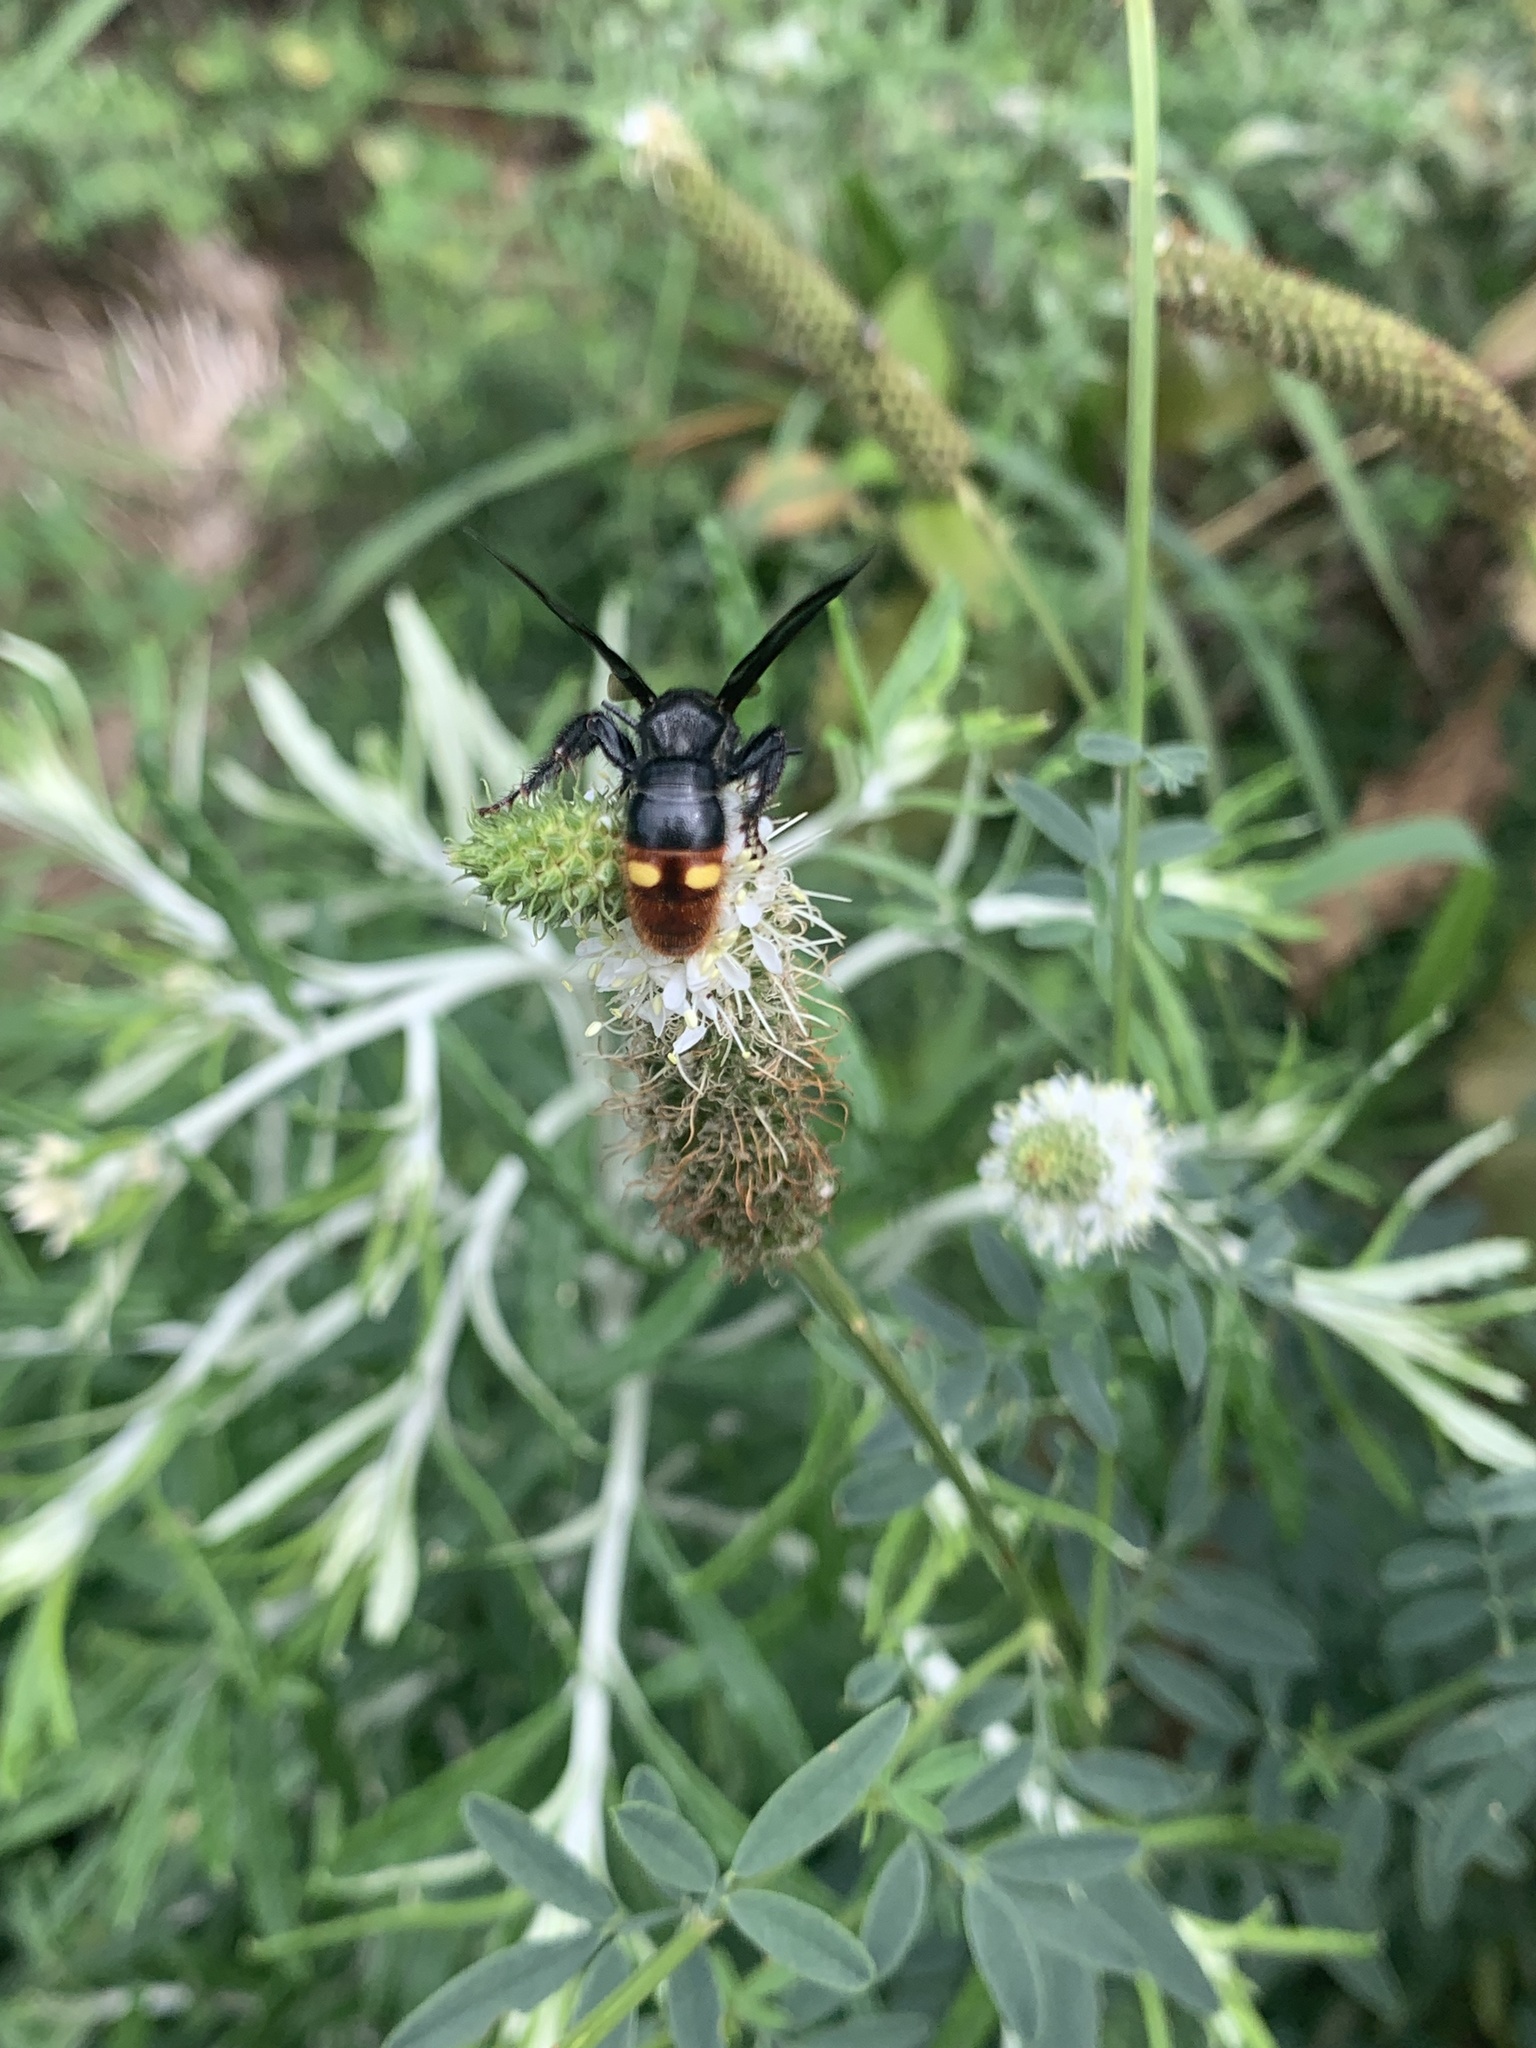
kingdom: Animalia
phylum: Arthropoda
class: Insecta
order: Hymenoptera
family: Scoliidae
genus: Scolia
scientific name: Scolia dubia
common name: Blue-winged scoliid wasp
